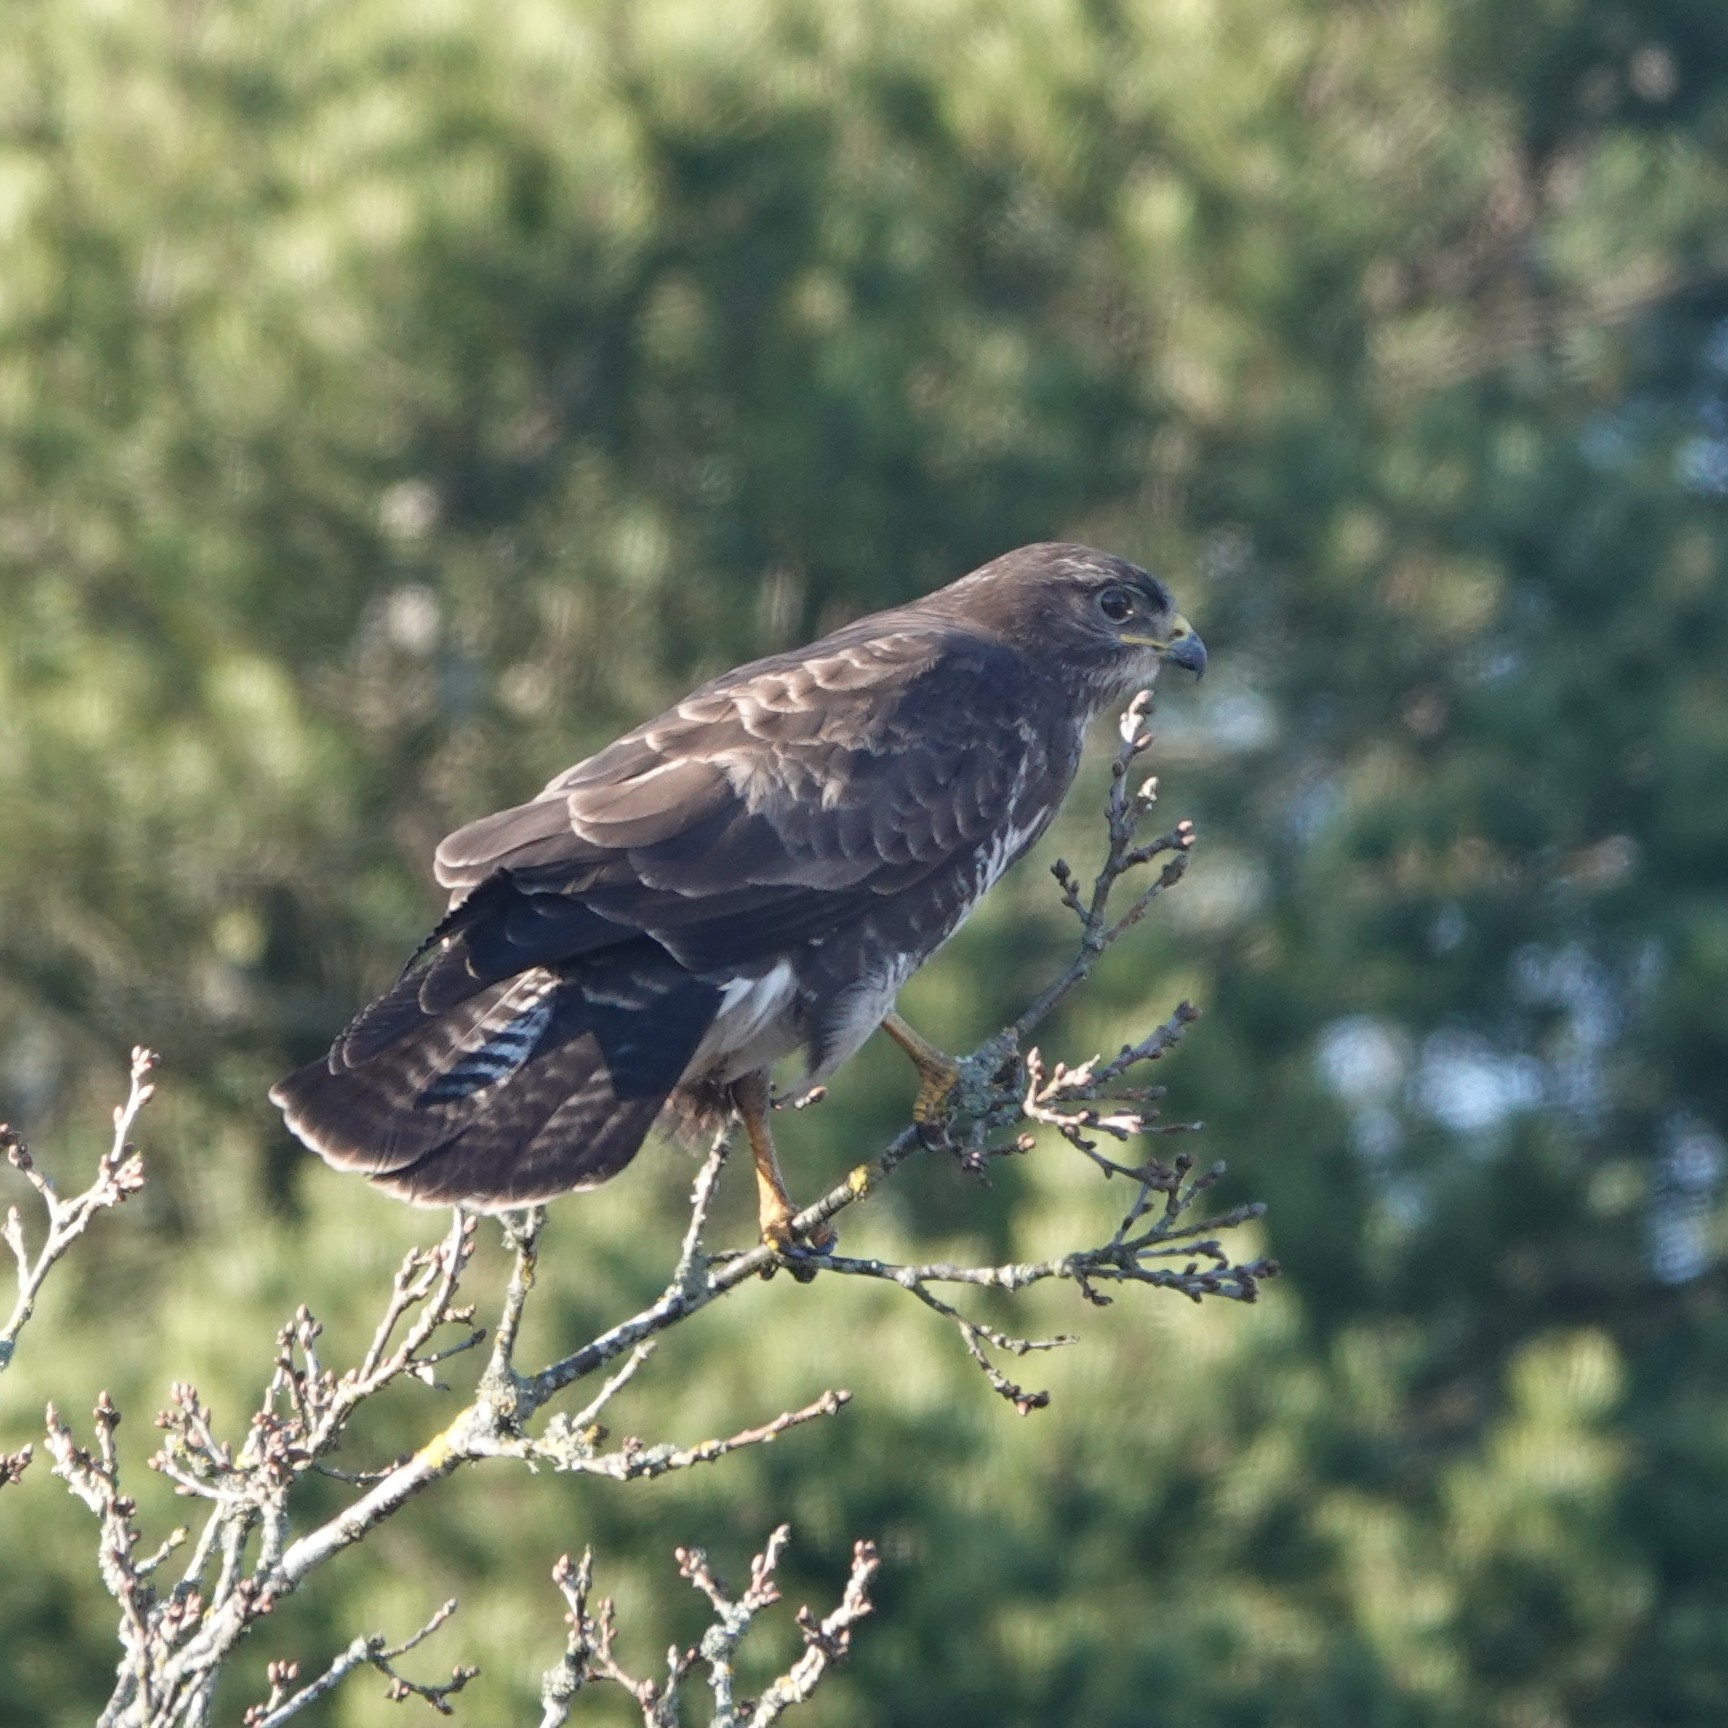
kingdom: Animalia
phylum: Chordata
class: Aves
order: Accipitriformes
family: Accipitridae
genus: Buteo
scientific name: Buteo buteo
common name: Common buzzard
